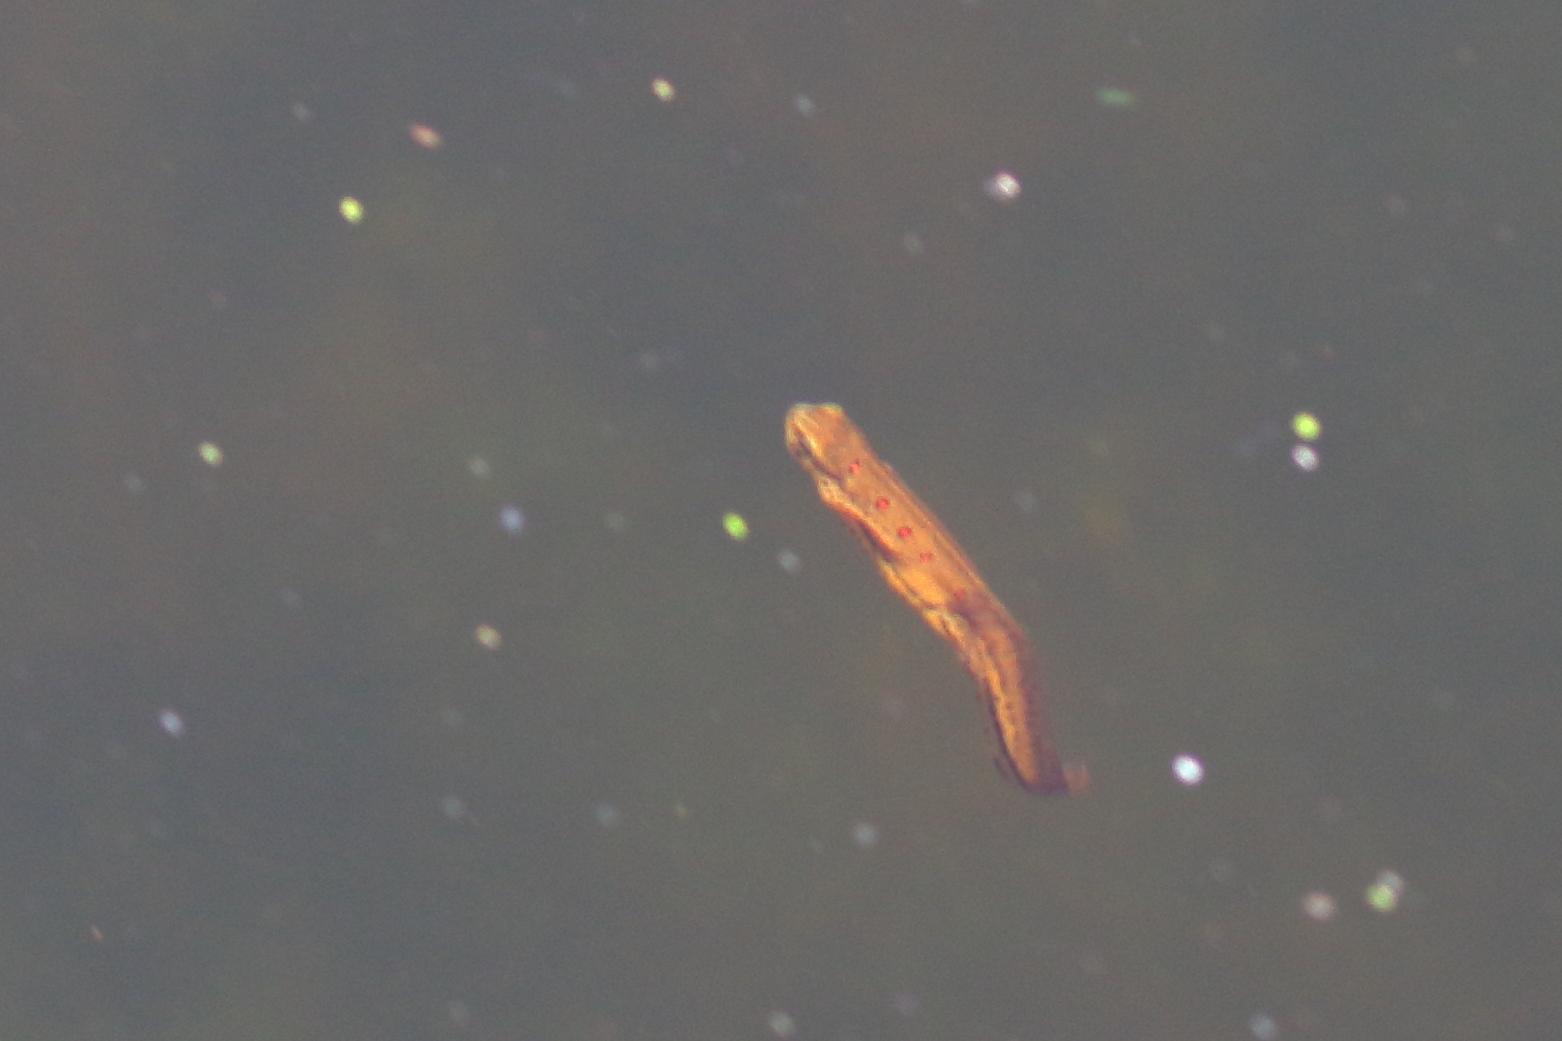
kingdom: Animalia
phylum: Chordata
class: Amphibia
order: Caudata
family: Salamandridae
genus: Notophthalmus
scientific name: Notophthalmus viridescens
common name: Eastern newt
